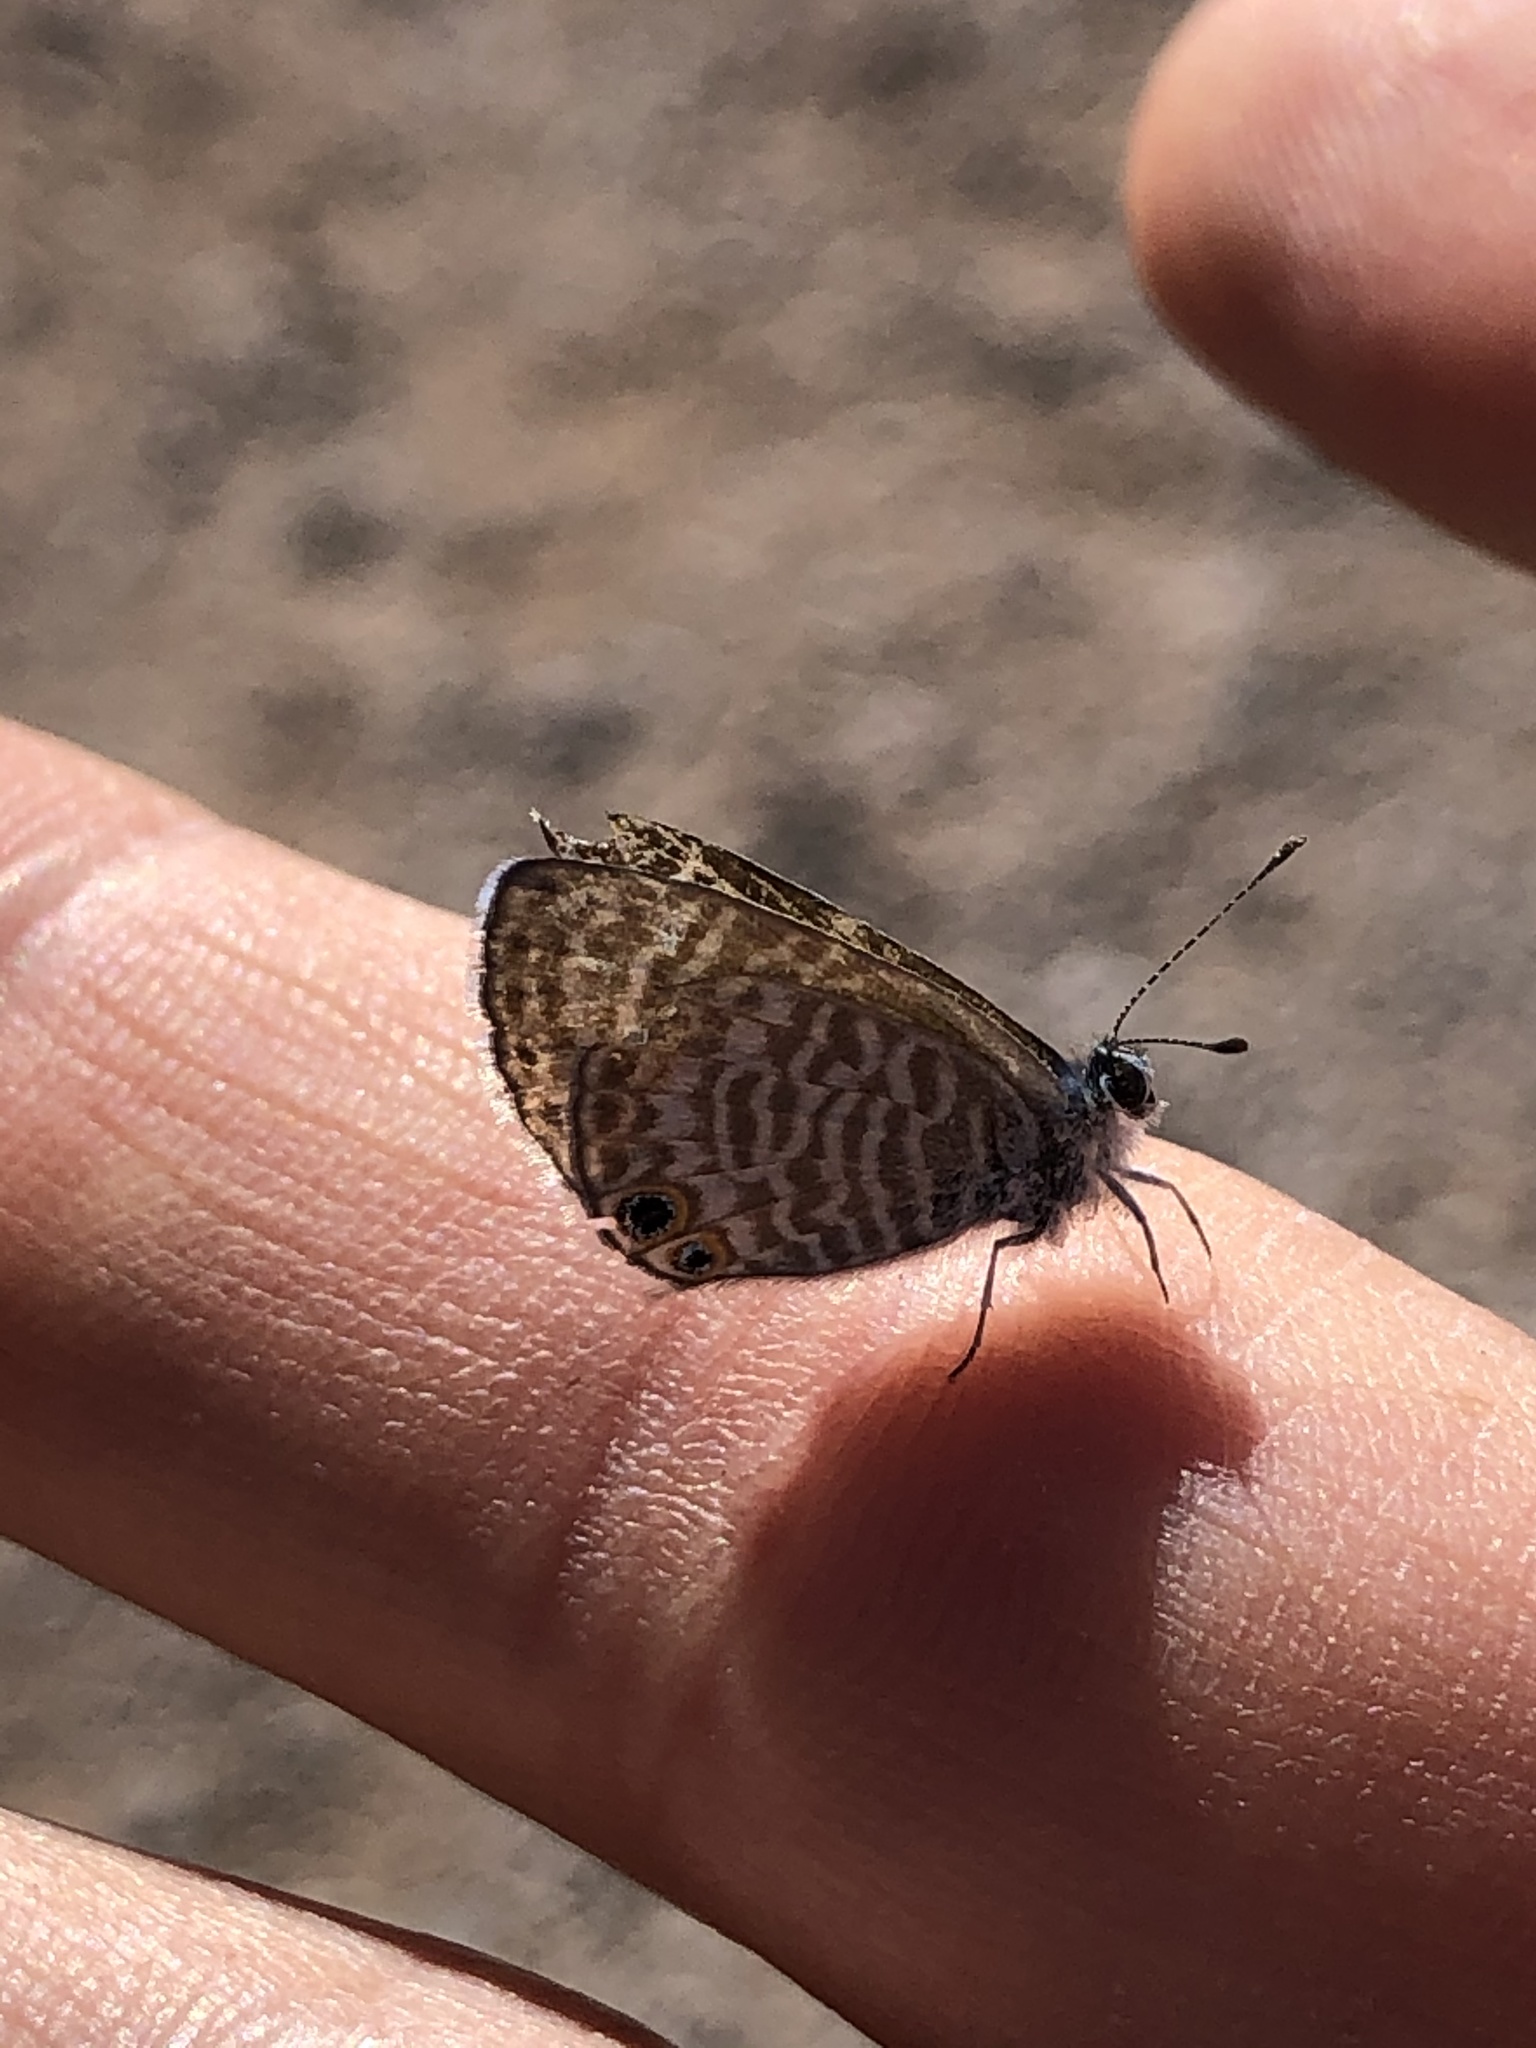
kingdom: Animalia
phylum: Arthropoda
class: Insecta
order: Lepidoptera
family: Lycaenidae
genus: Leptotes
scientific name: Leptotes marina
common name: Marine blue
